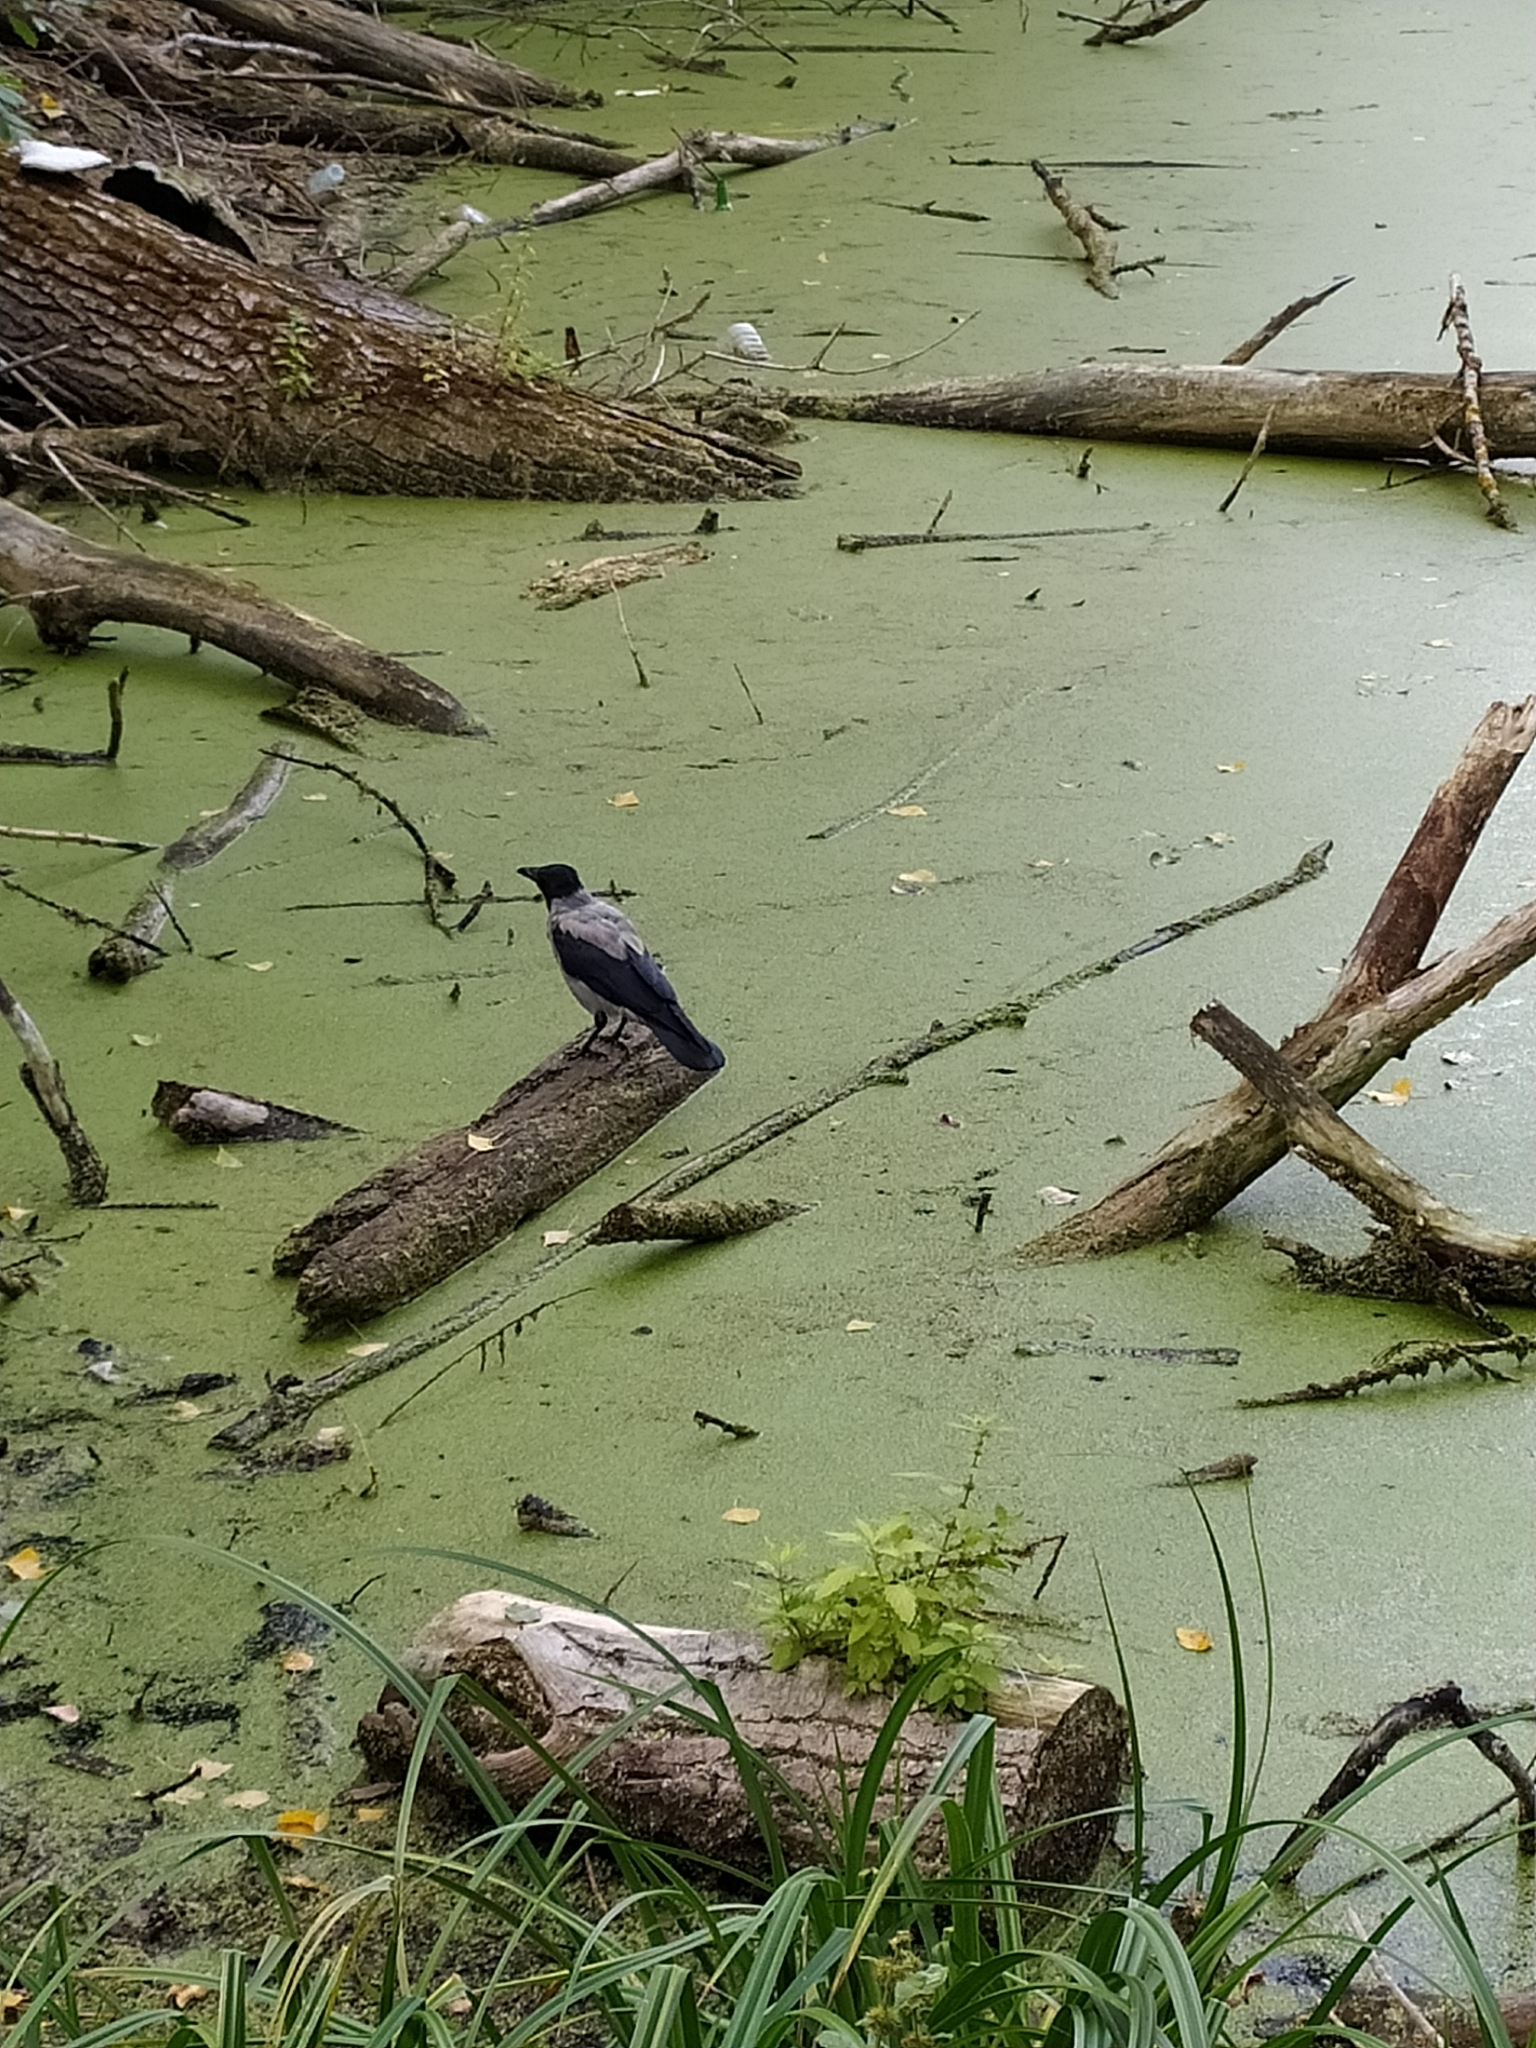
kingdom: Animalia
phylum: Chordata
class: Aves
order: Passeriformes
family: Corvidae
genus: Corvus
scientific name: Corvus cornix
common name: Hooded crow
